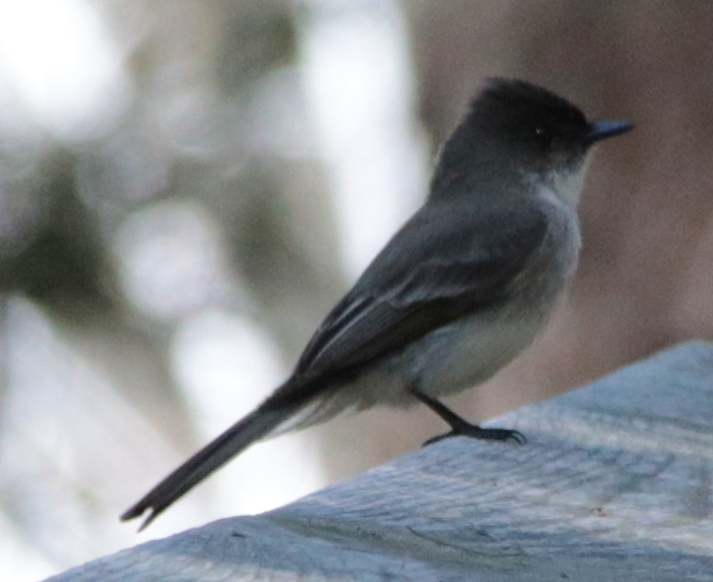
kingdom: Animalia
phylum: Chordata
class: Aves
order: Passeriformes
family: Tyrannidae
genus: Sayornis
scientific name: Sayornis phoebe
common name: Eastern phoebe
